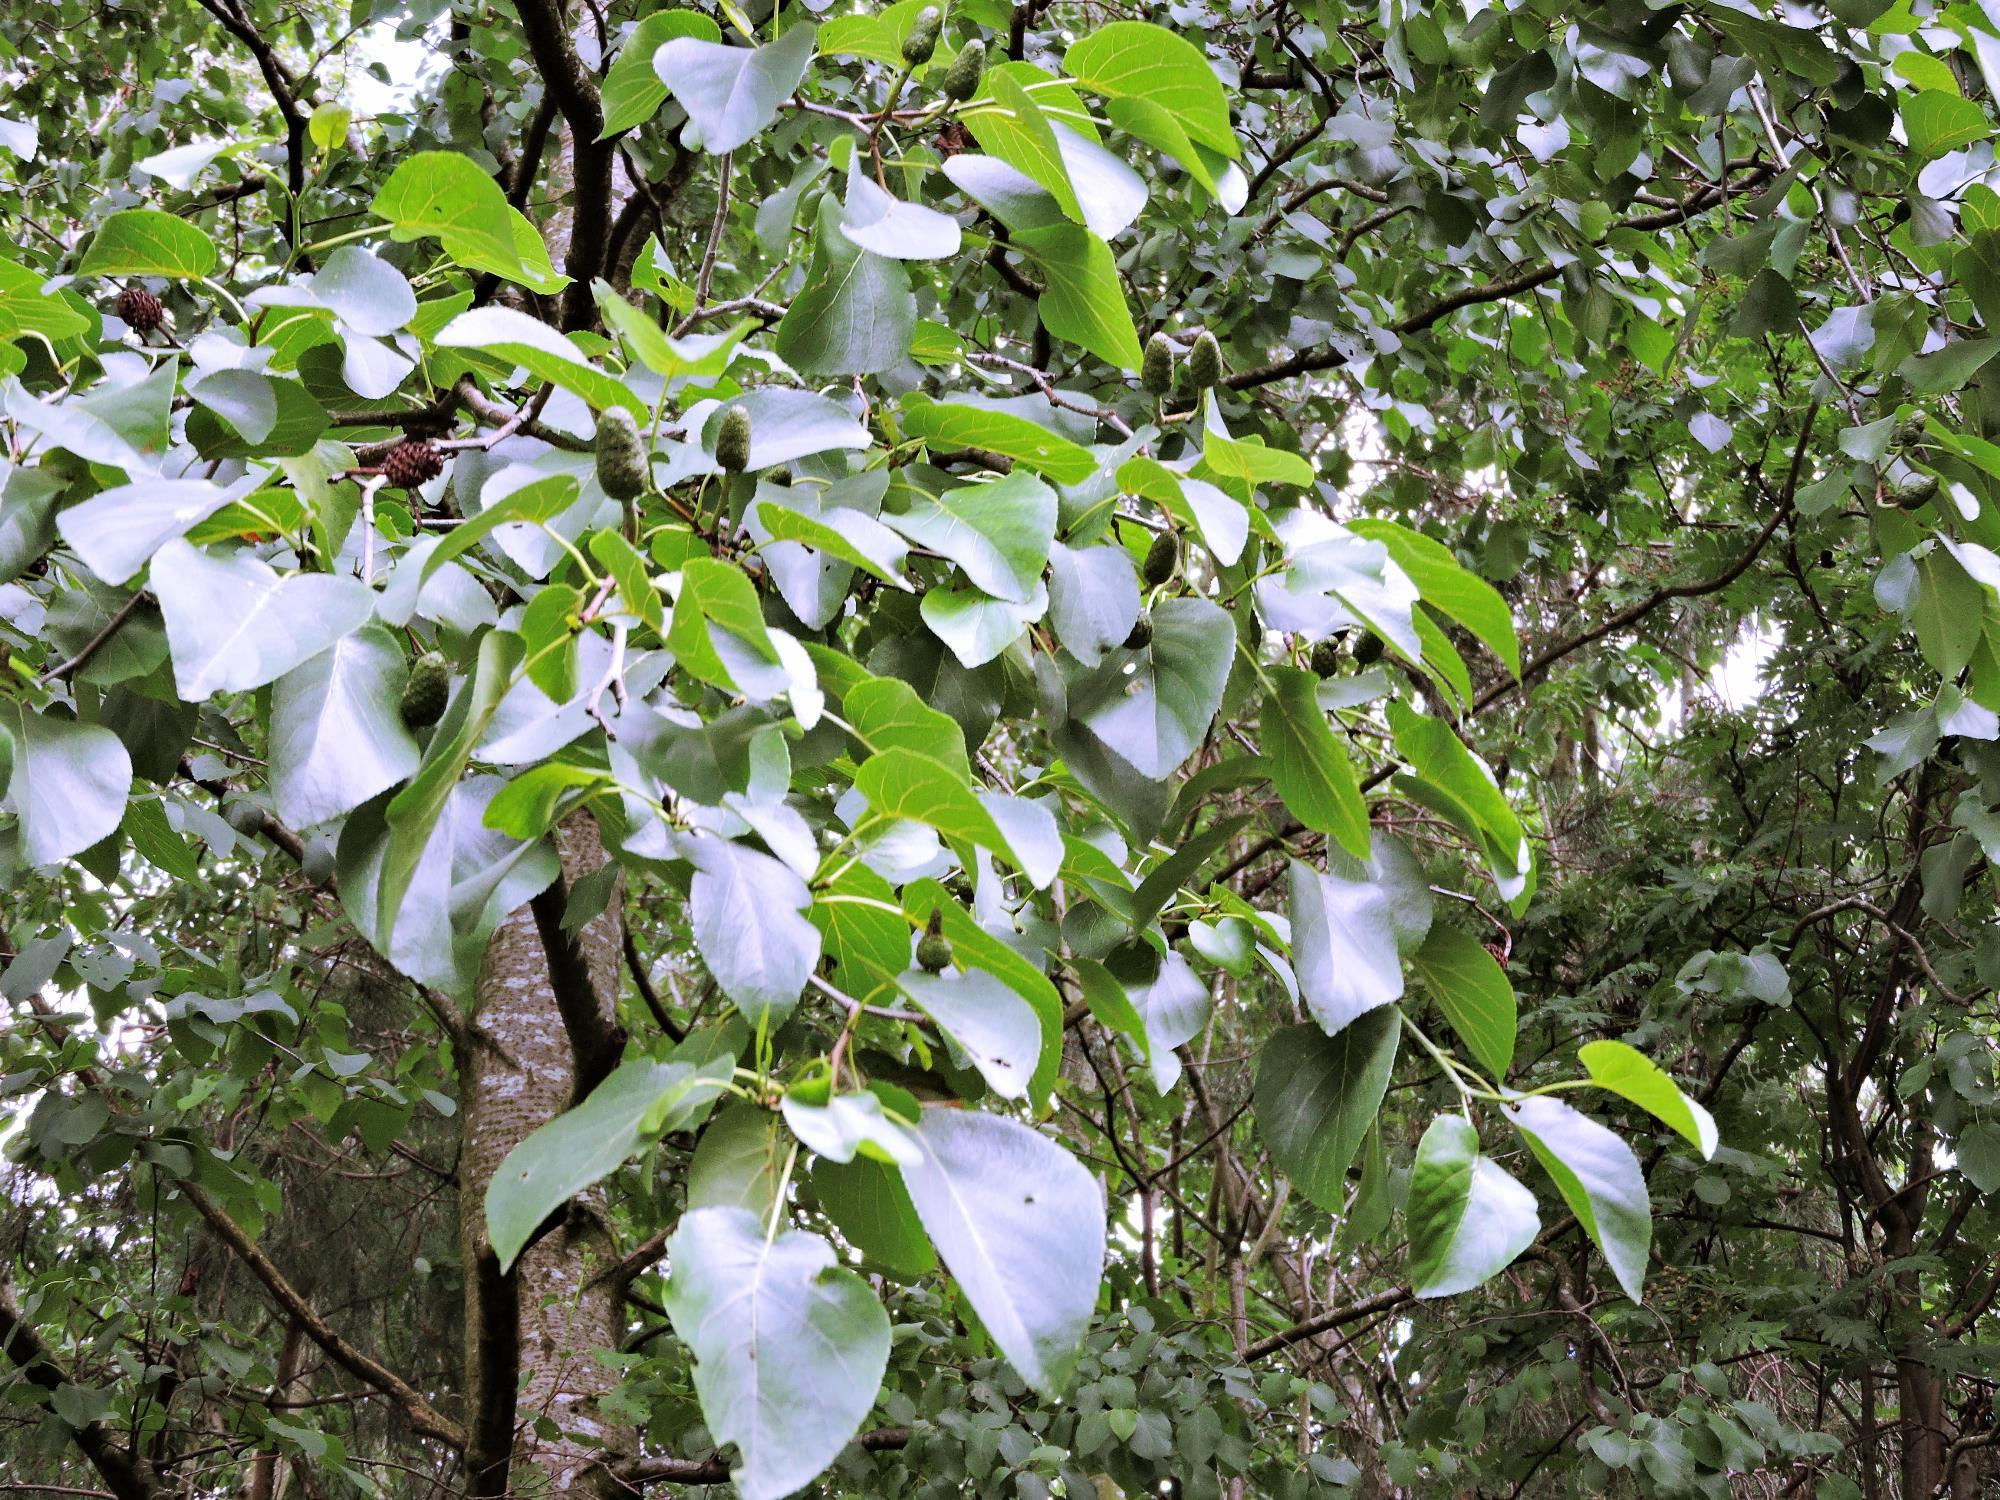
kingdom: Plantae
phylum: Tracheophyta
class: Magnoliopsida
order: Fagales
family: Betulaceae
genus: Alnus
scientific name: Alnus cordata
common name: Italian alder
